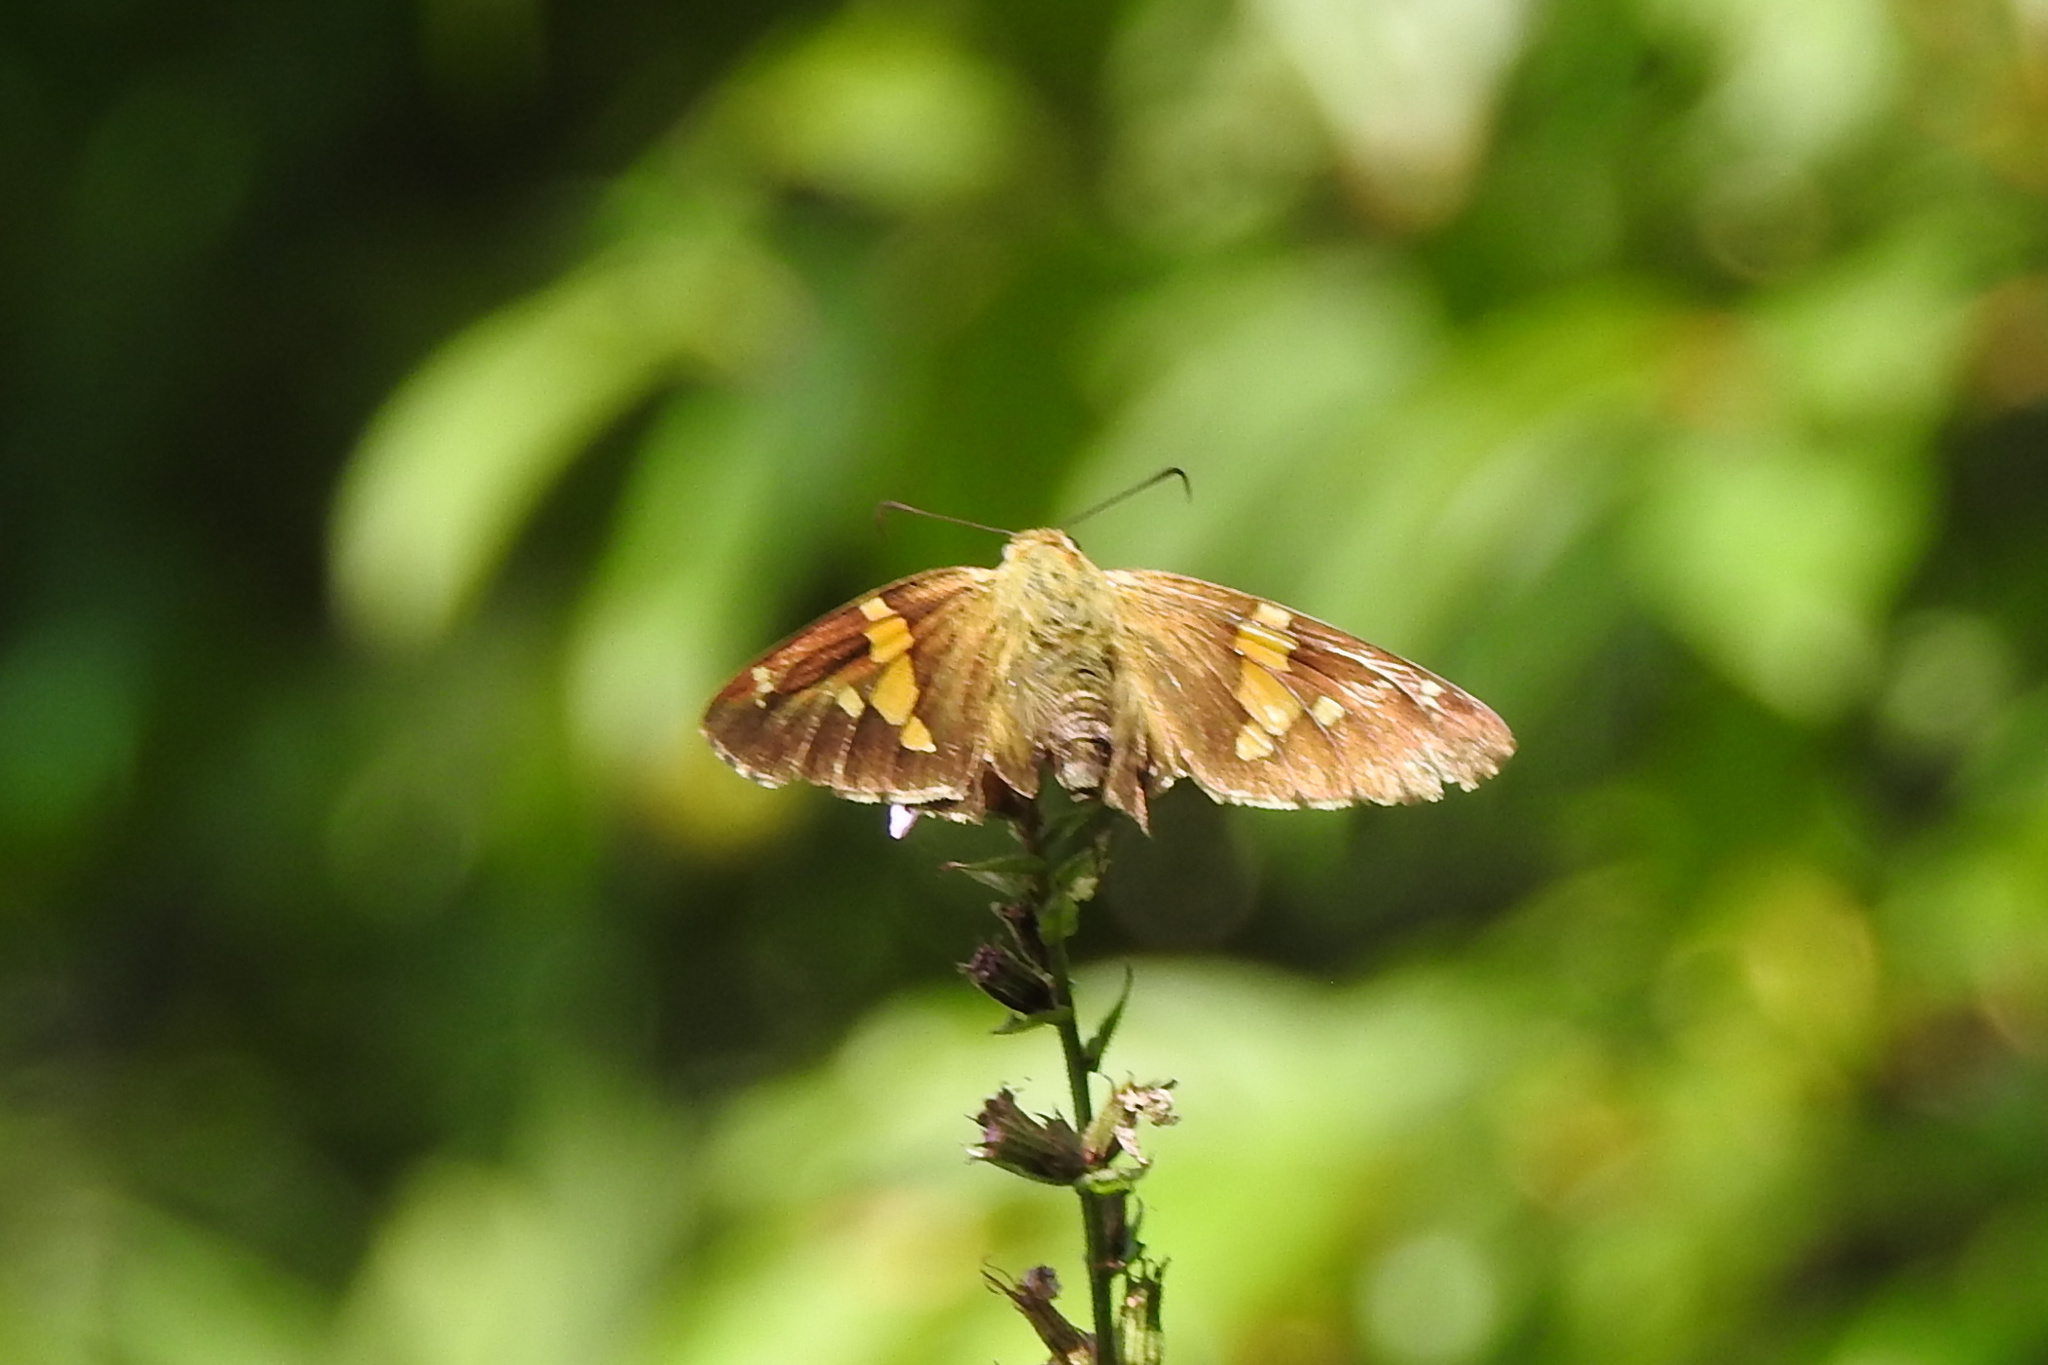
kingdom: Animalia
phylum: Arthropoda
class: Insecta
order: Lepidoptera
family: Hesperiidae
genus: Epargyreus
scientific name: Epargyreus clarus
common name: Silver-spotted skipper
